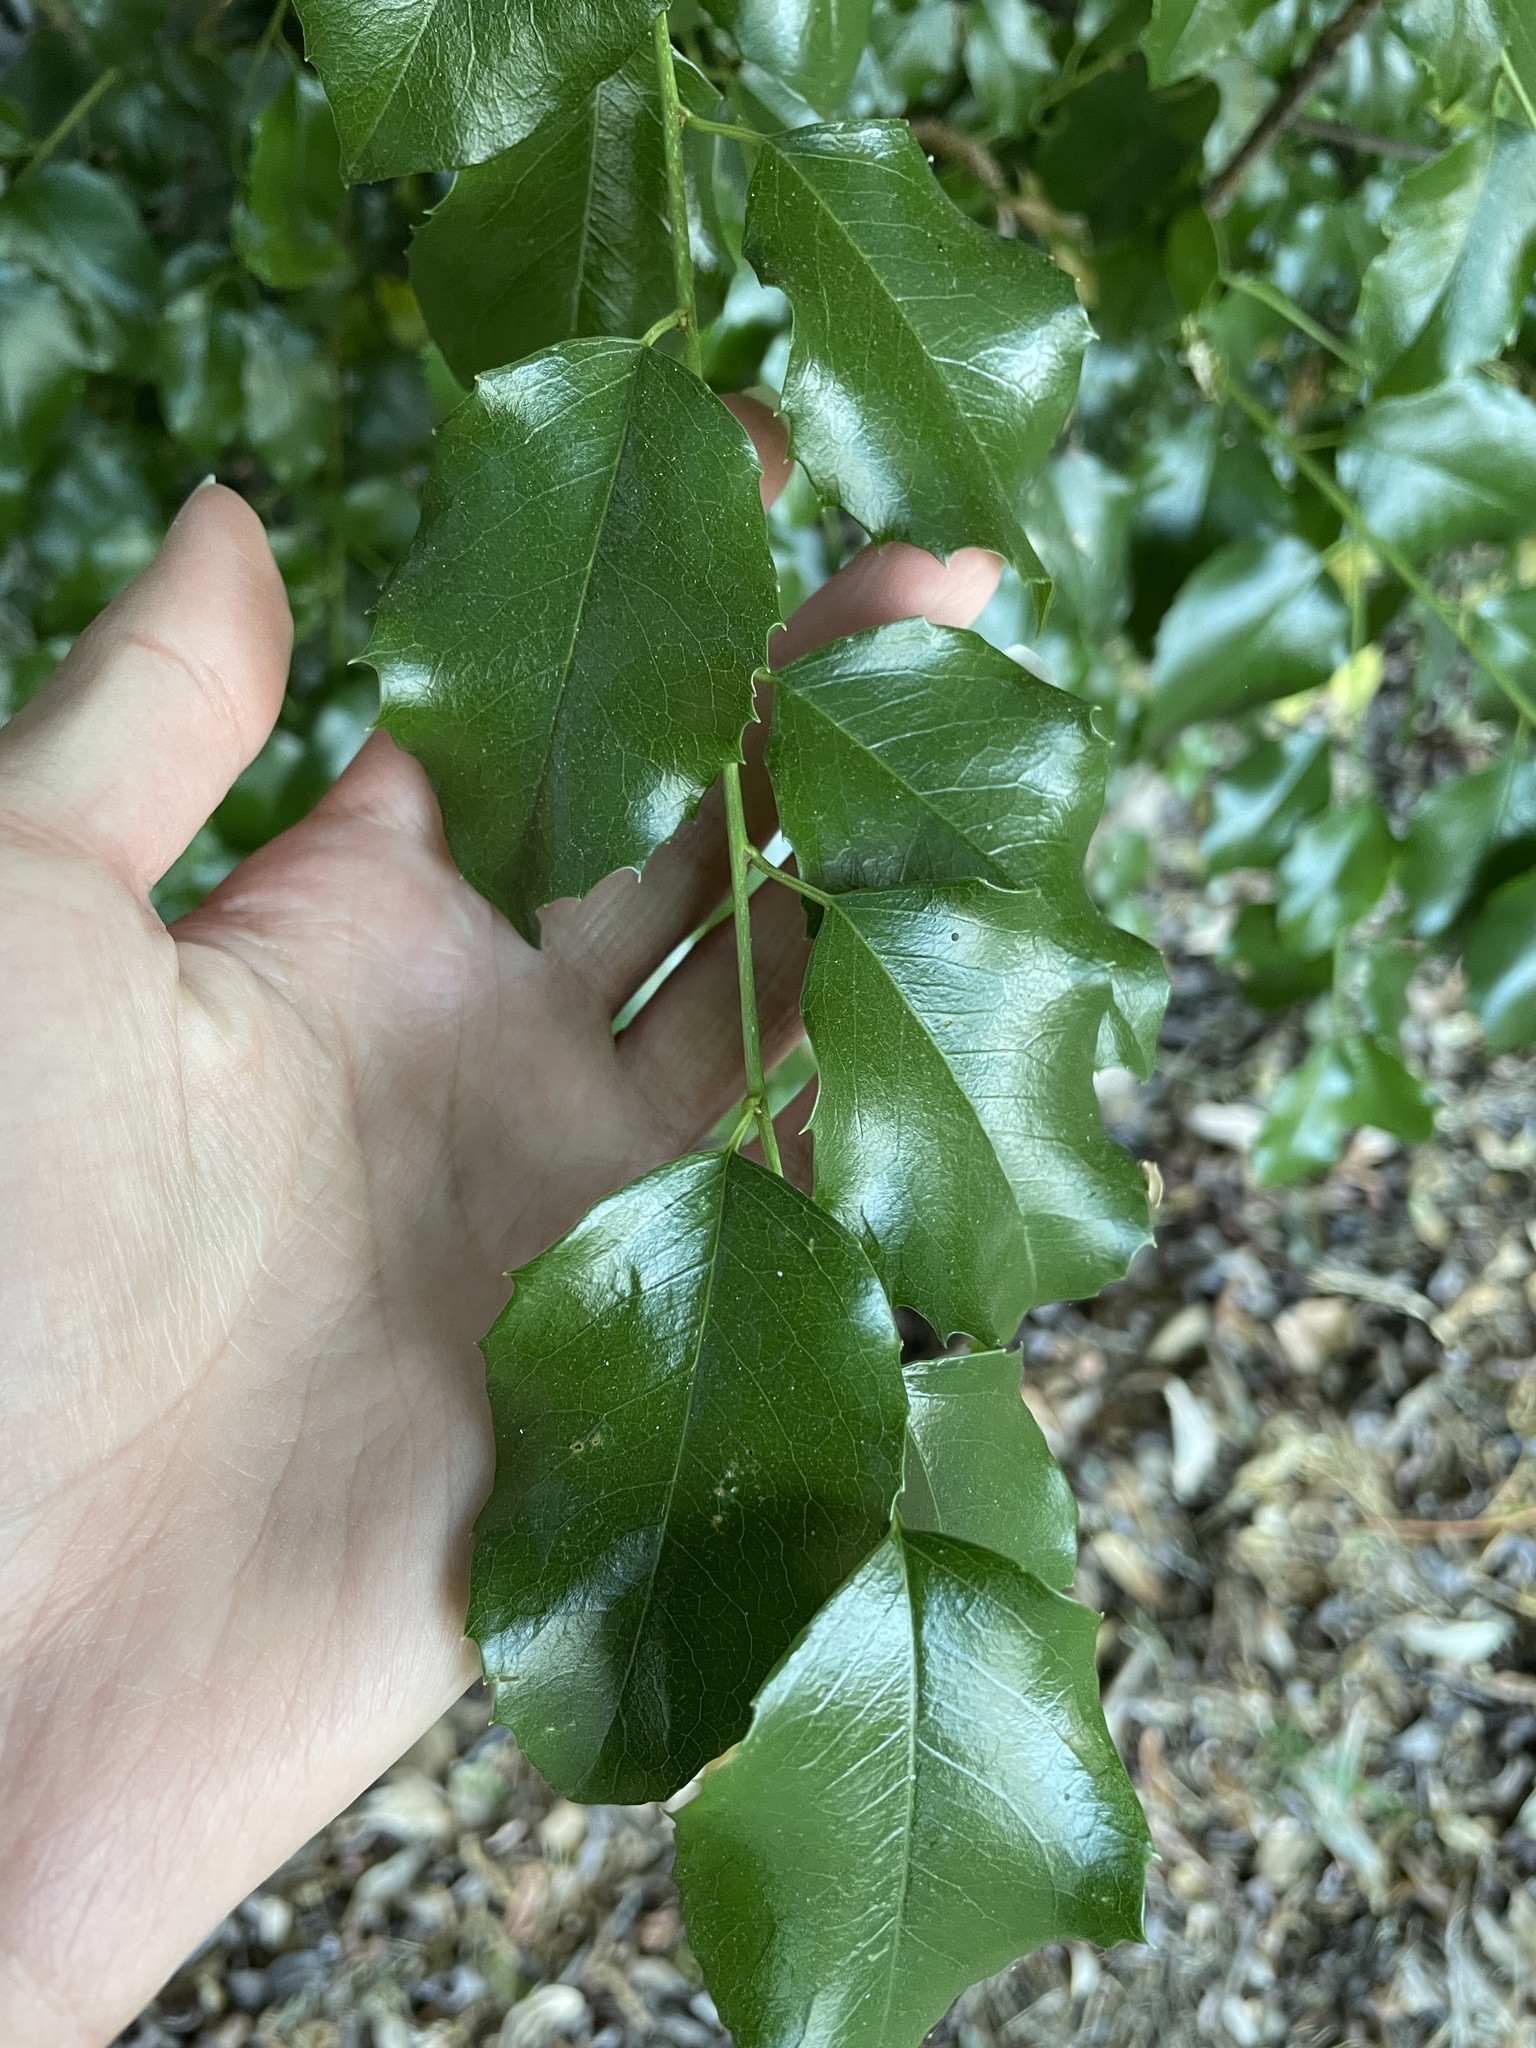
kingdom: Plantae
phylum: Tracheophyta
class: Magnoliopsida
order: Rosales
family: Rosaceae
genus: Prunus
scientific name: Prunus ilicifolia
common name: Hollyleaf cherry
